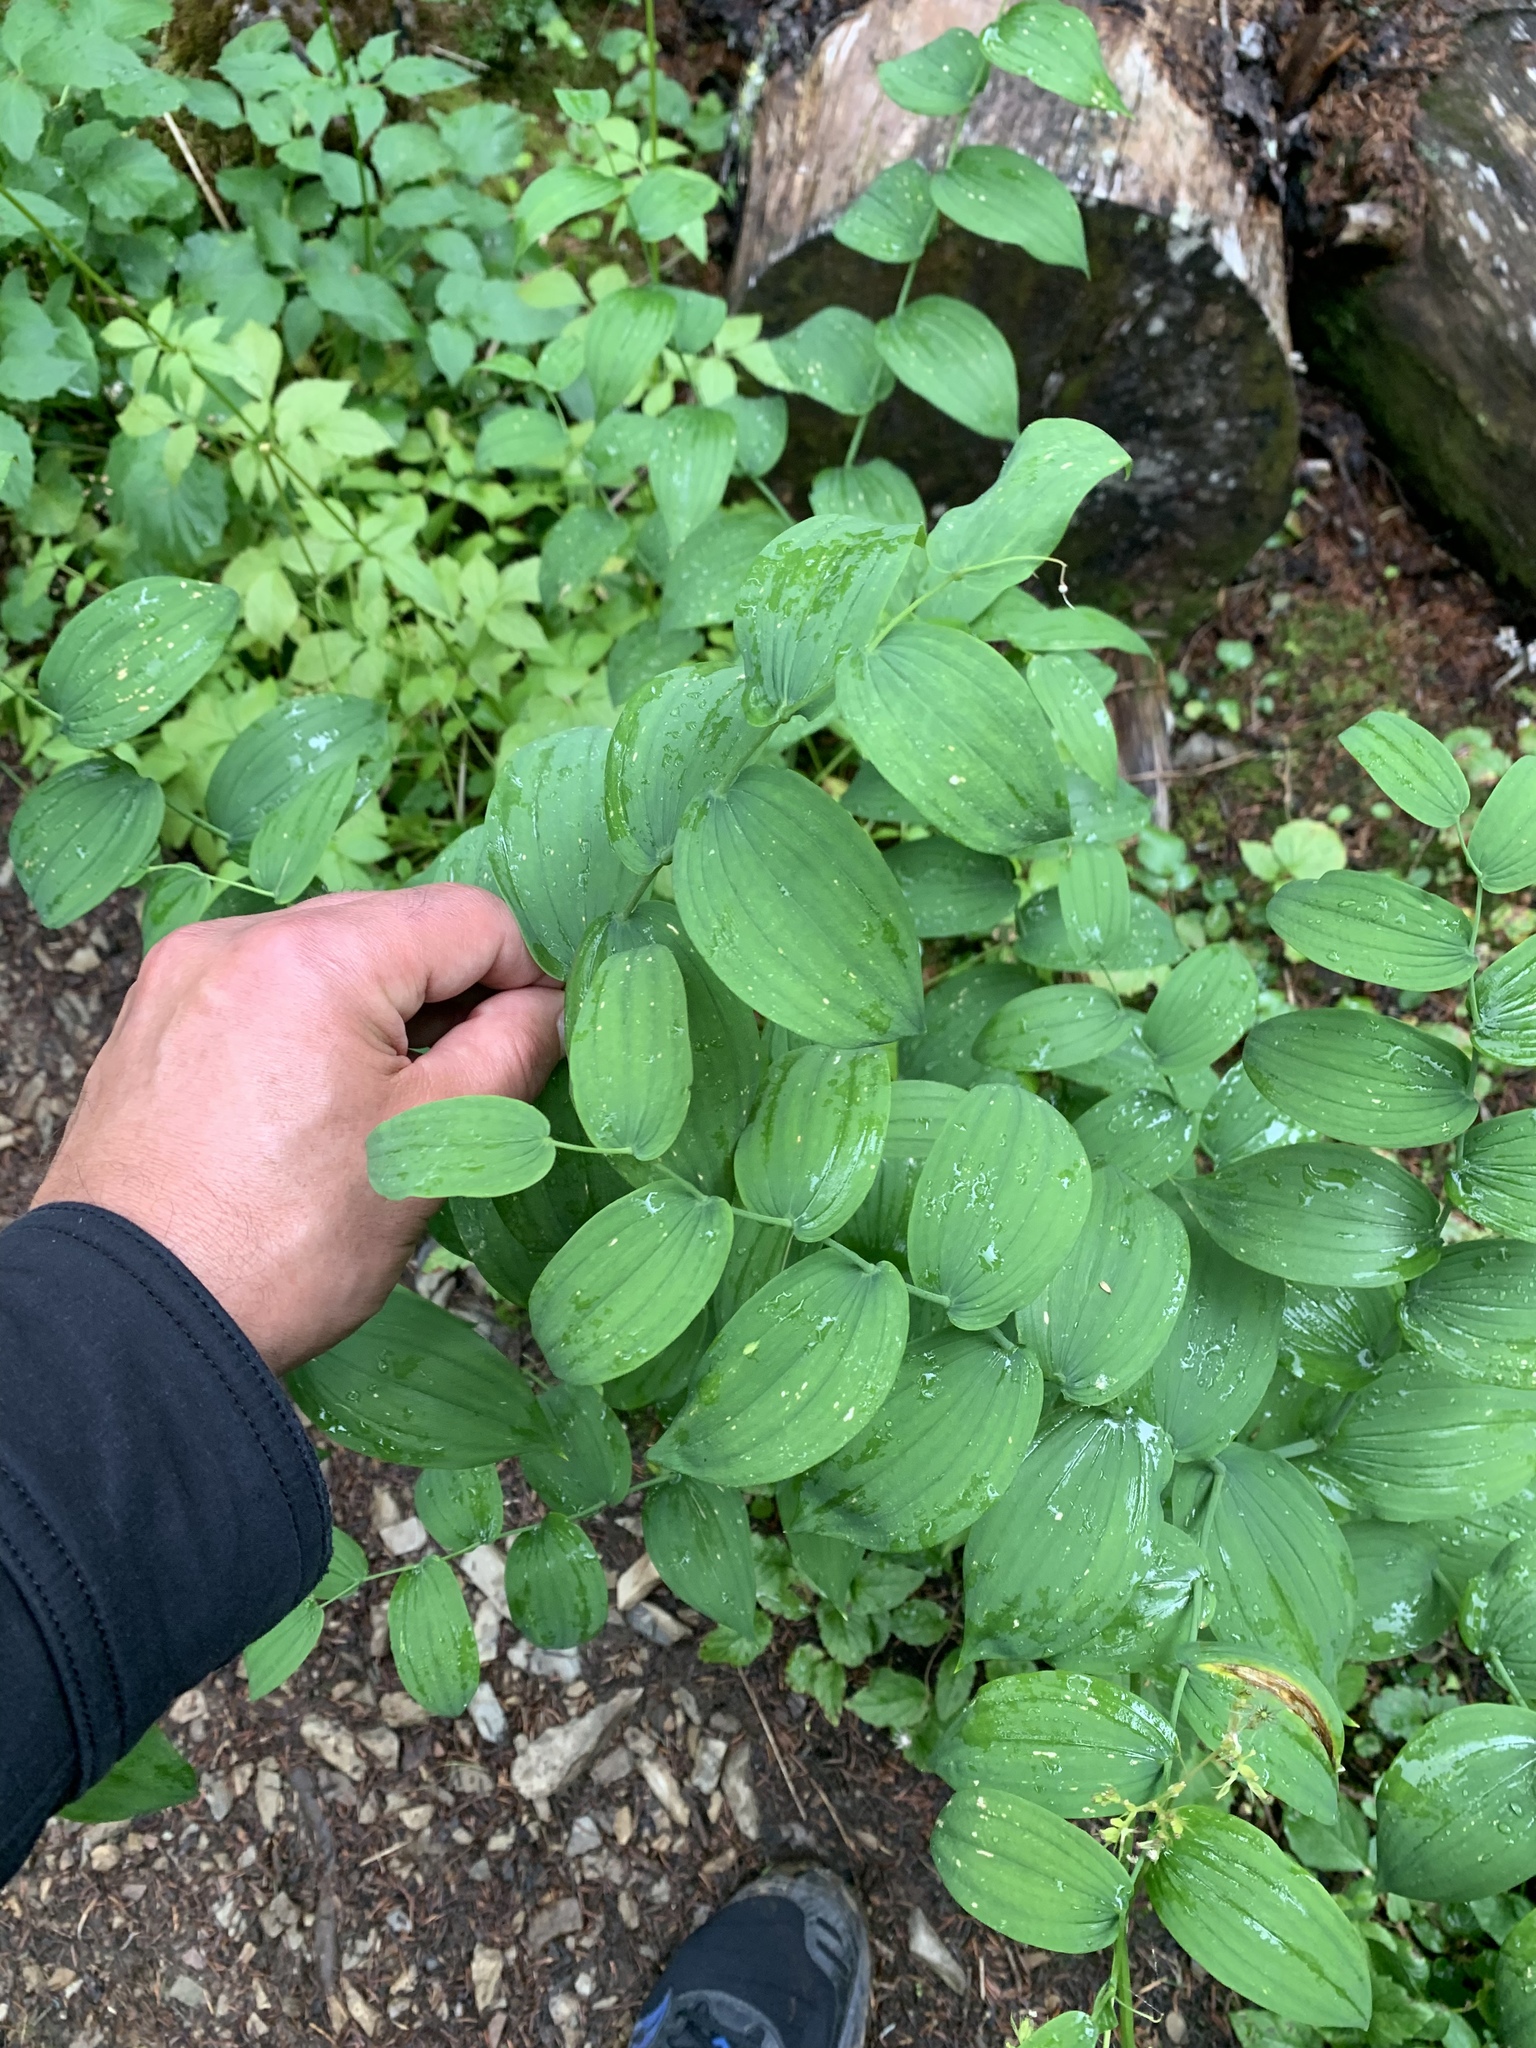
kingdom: Plantae
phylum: Tracheophyta
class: Liliopsida
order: Liliales
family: Liliaceae
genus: Streptopus
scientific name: Streptopus amplexifolius
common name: Clasp twisted stalk
